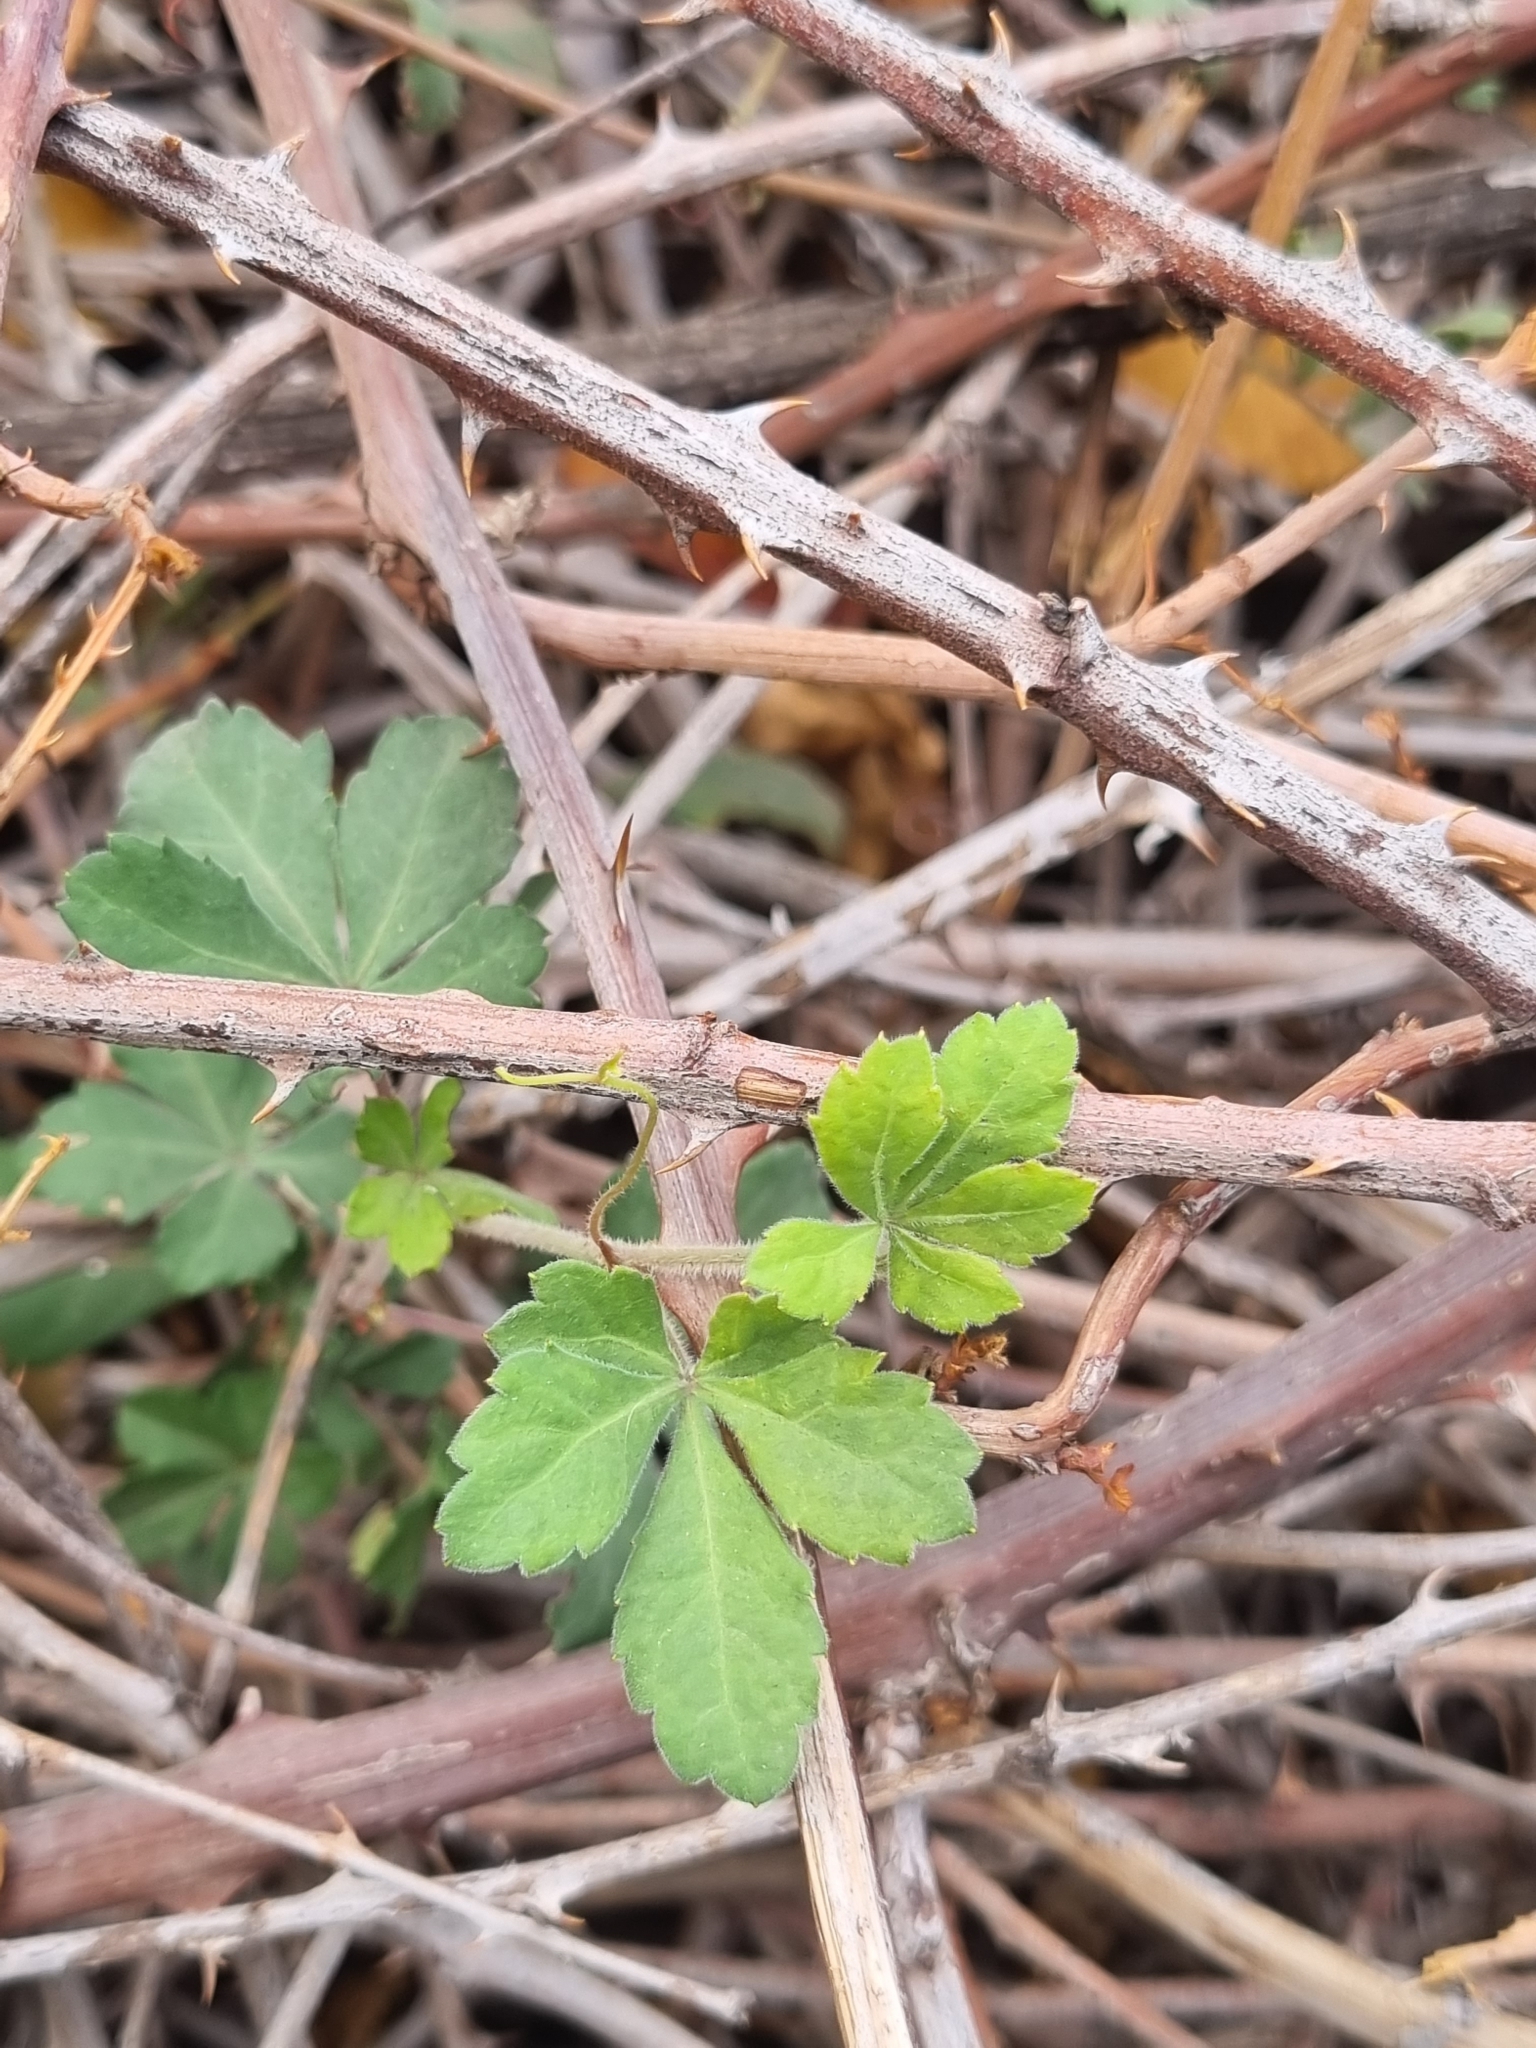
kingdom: Plantae
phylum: Tracheophyta
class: Magnoliopsida
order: Vitales
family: Vitaceae
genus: Clematicissus
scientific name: Clematicissus striata
